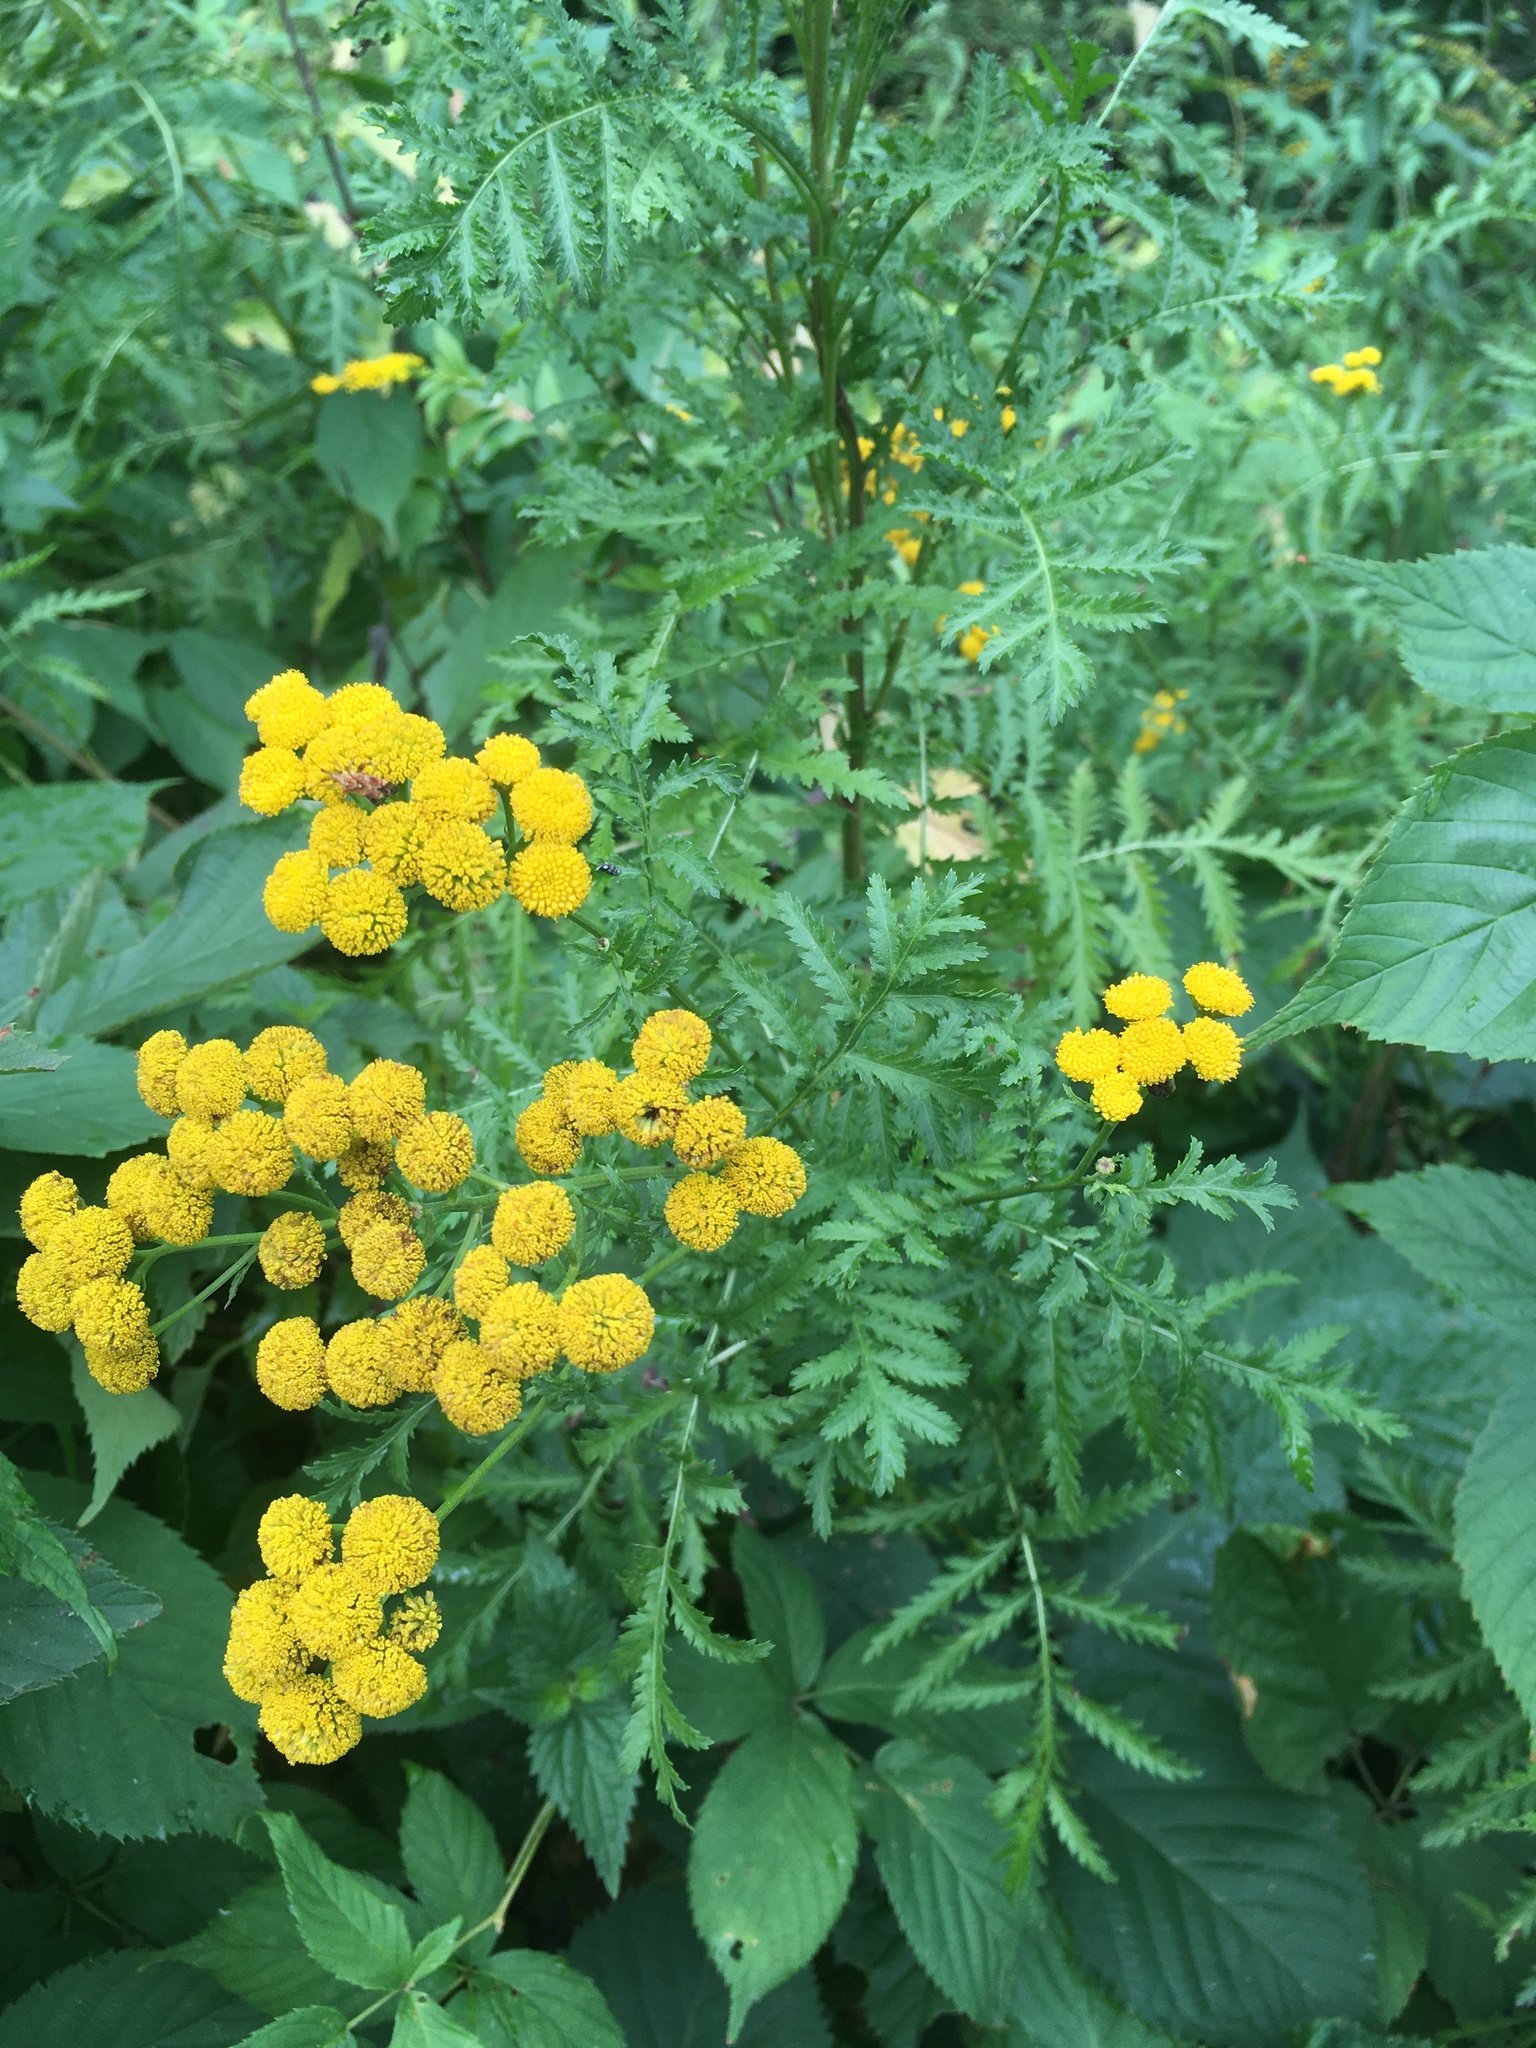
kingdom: Plantae
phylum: Tracheophyta
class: Magnoliopsida
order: Asterales
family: Asteraceae
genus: Tanacetum
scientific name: Tanacetum vulgare
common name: Common tansy
